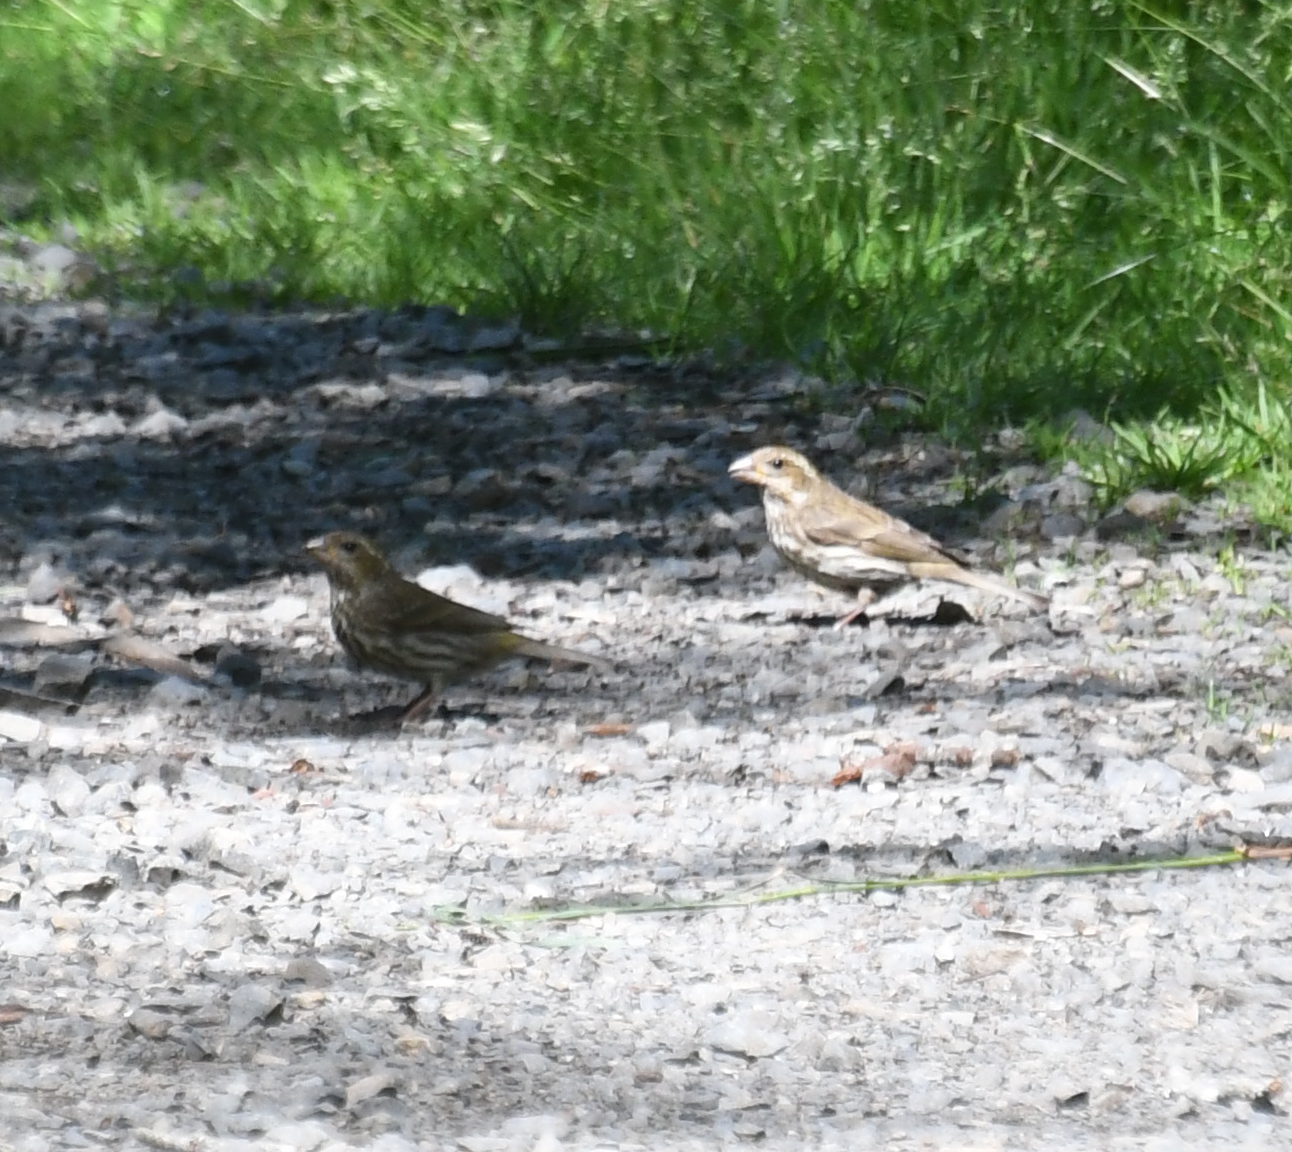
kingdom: Animalia
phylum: Chordata
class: Aves
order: Passeriformes
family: Fringillidae
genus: Haemorhous
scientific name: Haemorhous purpureus
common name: Purple finch
